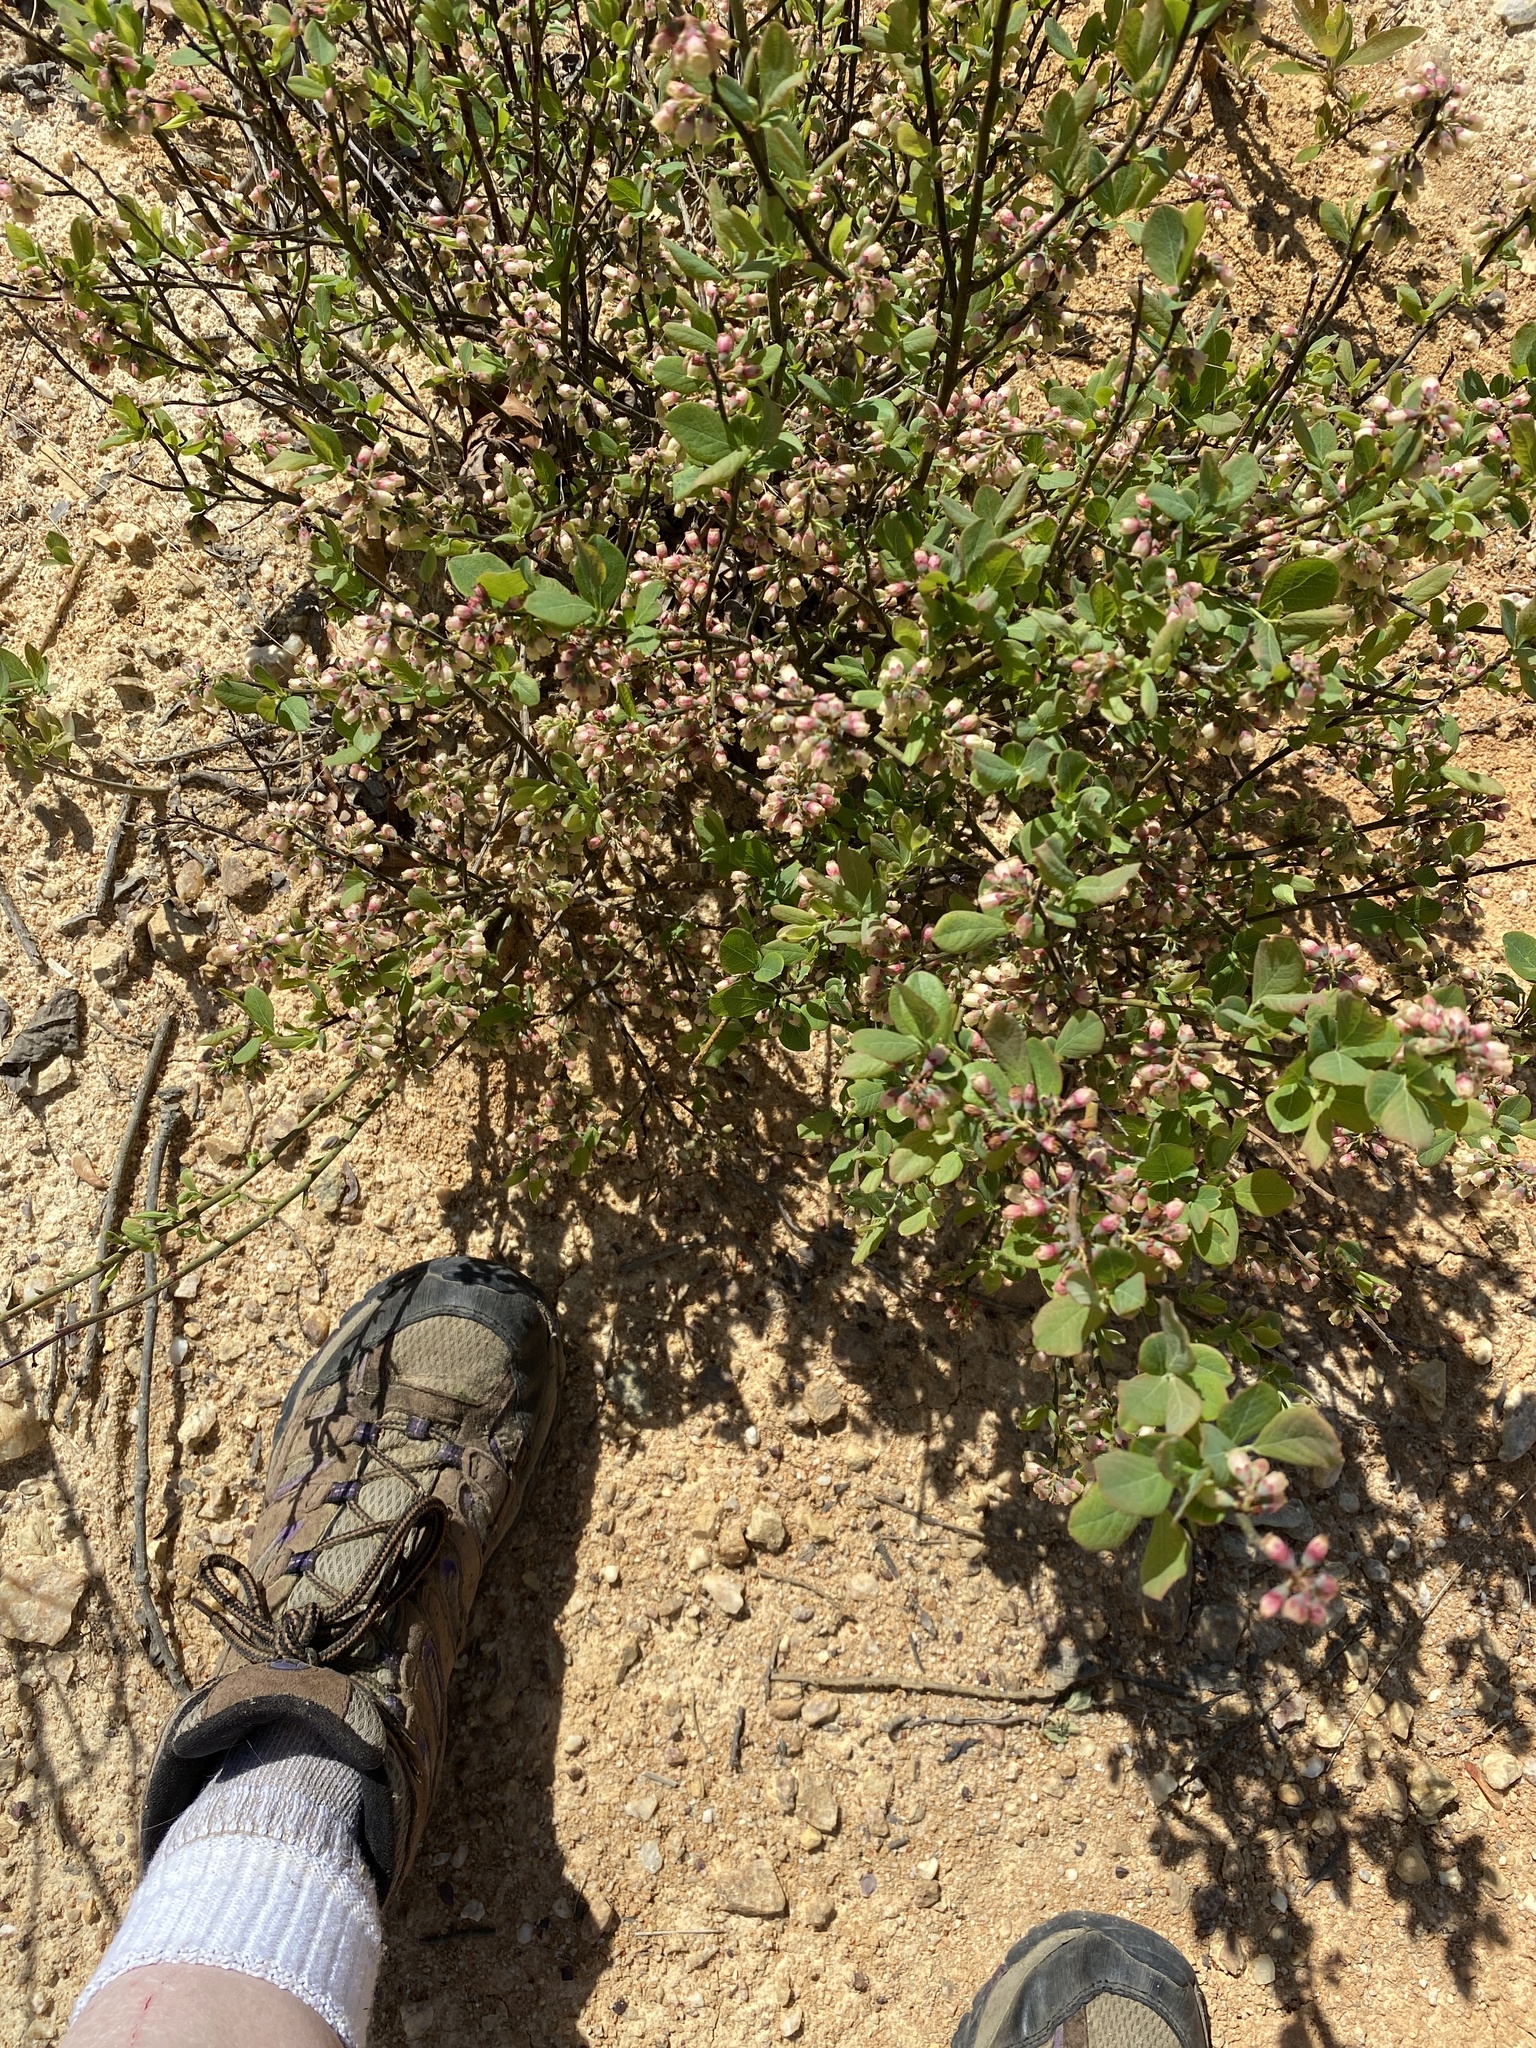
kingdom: Plantae
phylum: Tracheophyta
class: Magnoliopsida
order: Ericales
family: Ericaceae
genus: Vaccinium
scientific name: Vaccinium pallidum
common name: Blue ridge blueberry
